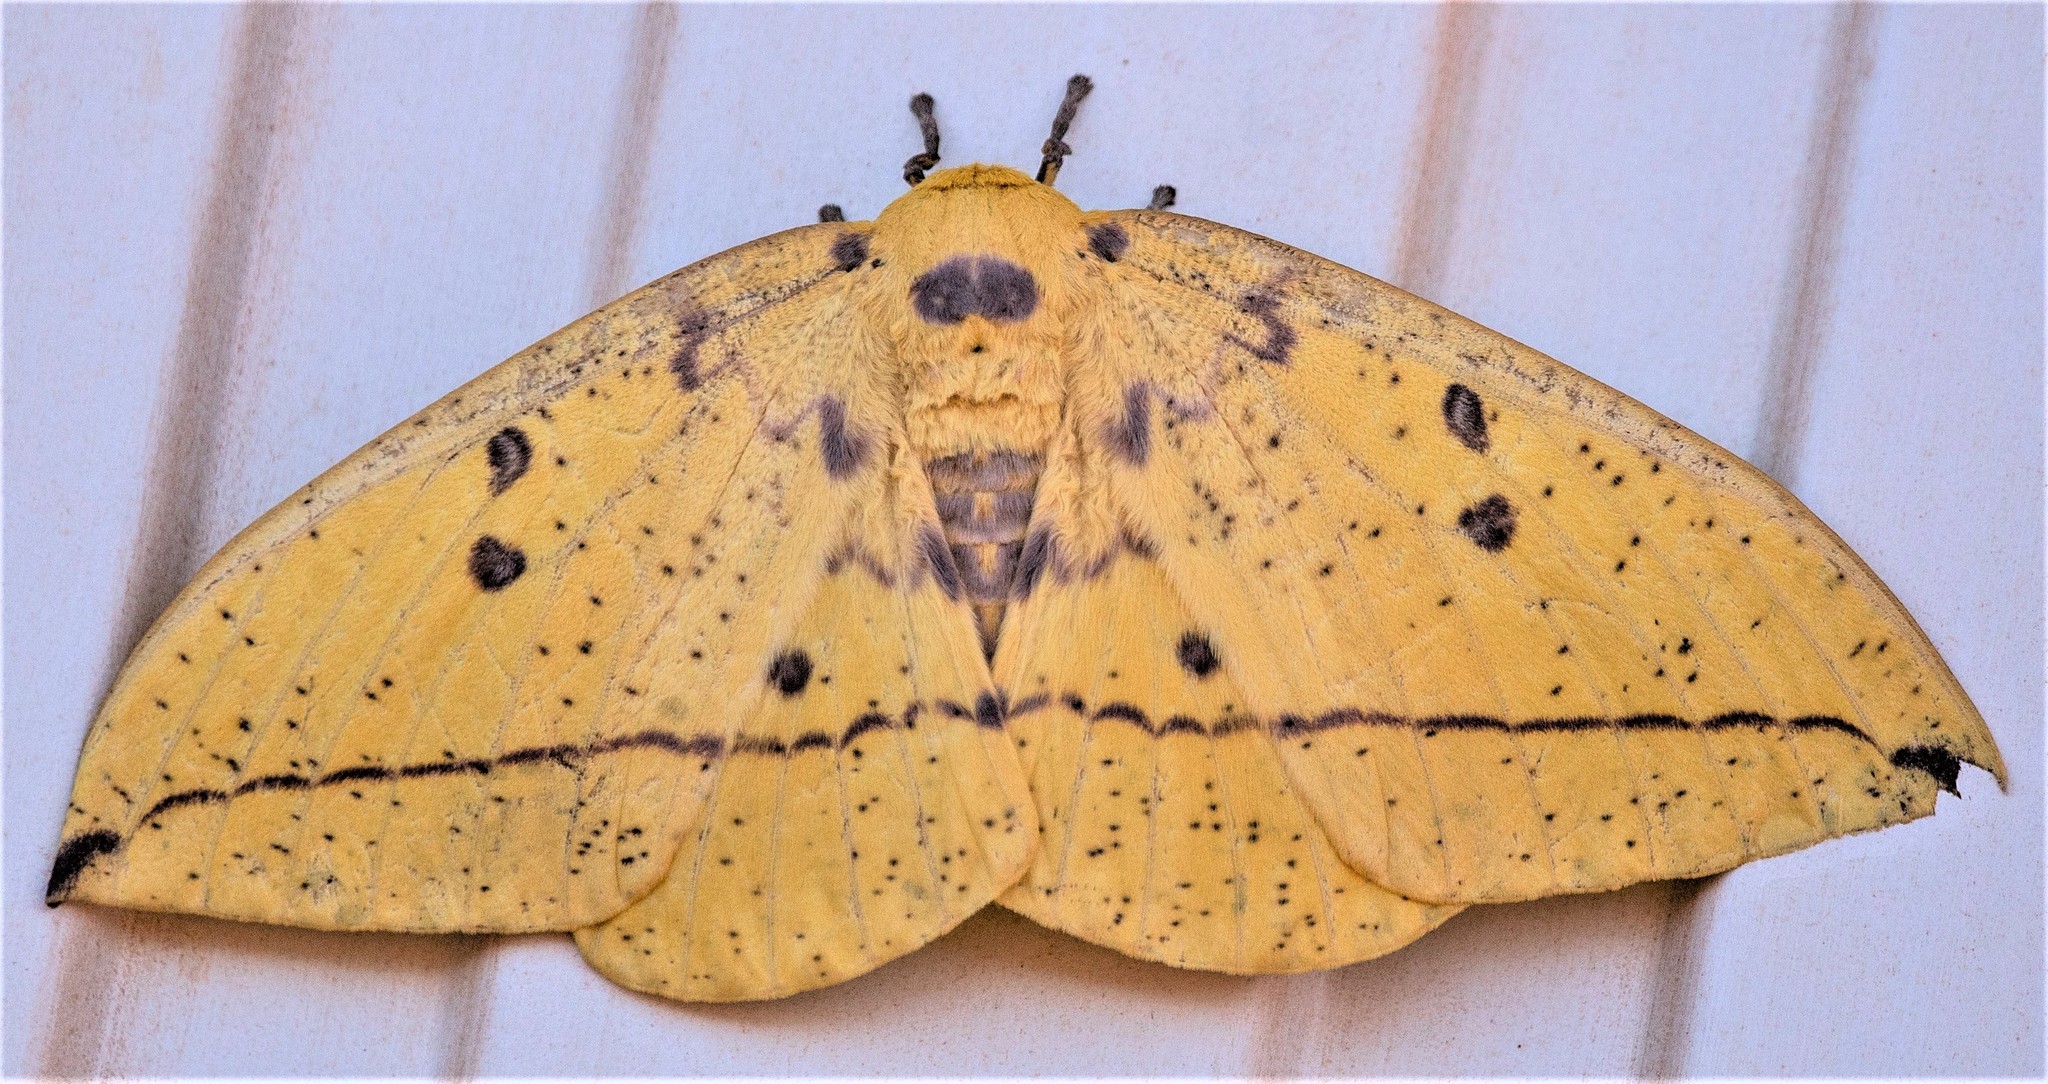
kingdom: Animalia
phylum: Arthropoda
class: Insecta
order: Lepidoptera
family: Saturniidae
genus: Eacles
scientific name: Eacles imperialis
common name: Imperial moth
